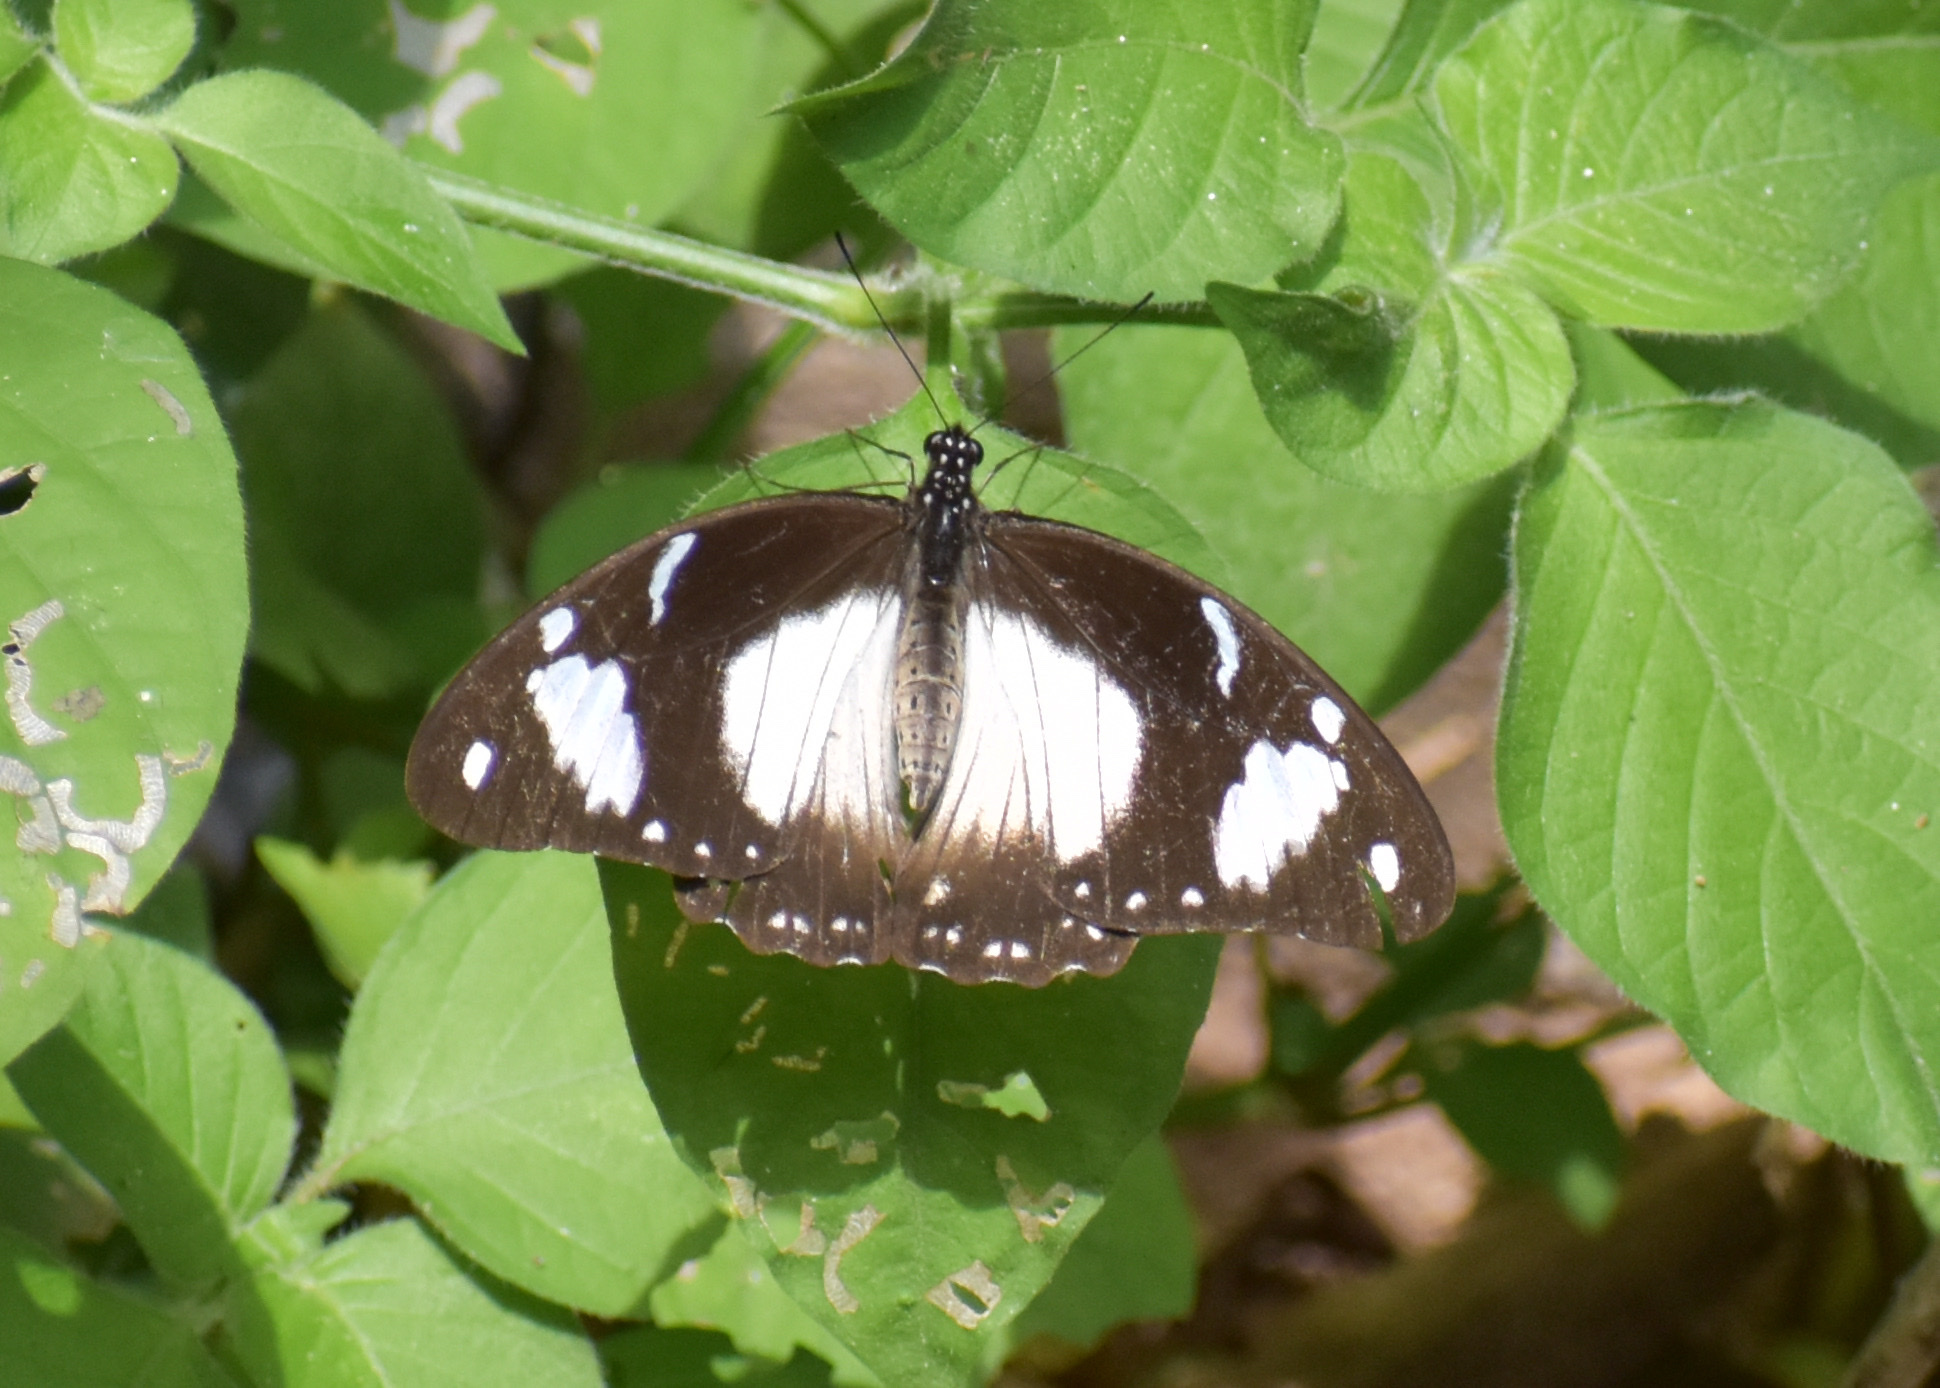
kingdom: Animalia
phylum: Arthropoda
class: Insecta
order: Lepidoptera
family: Papilionidae
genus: Papilio
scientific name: Papilio dardanus
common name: Flying handkerchief
